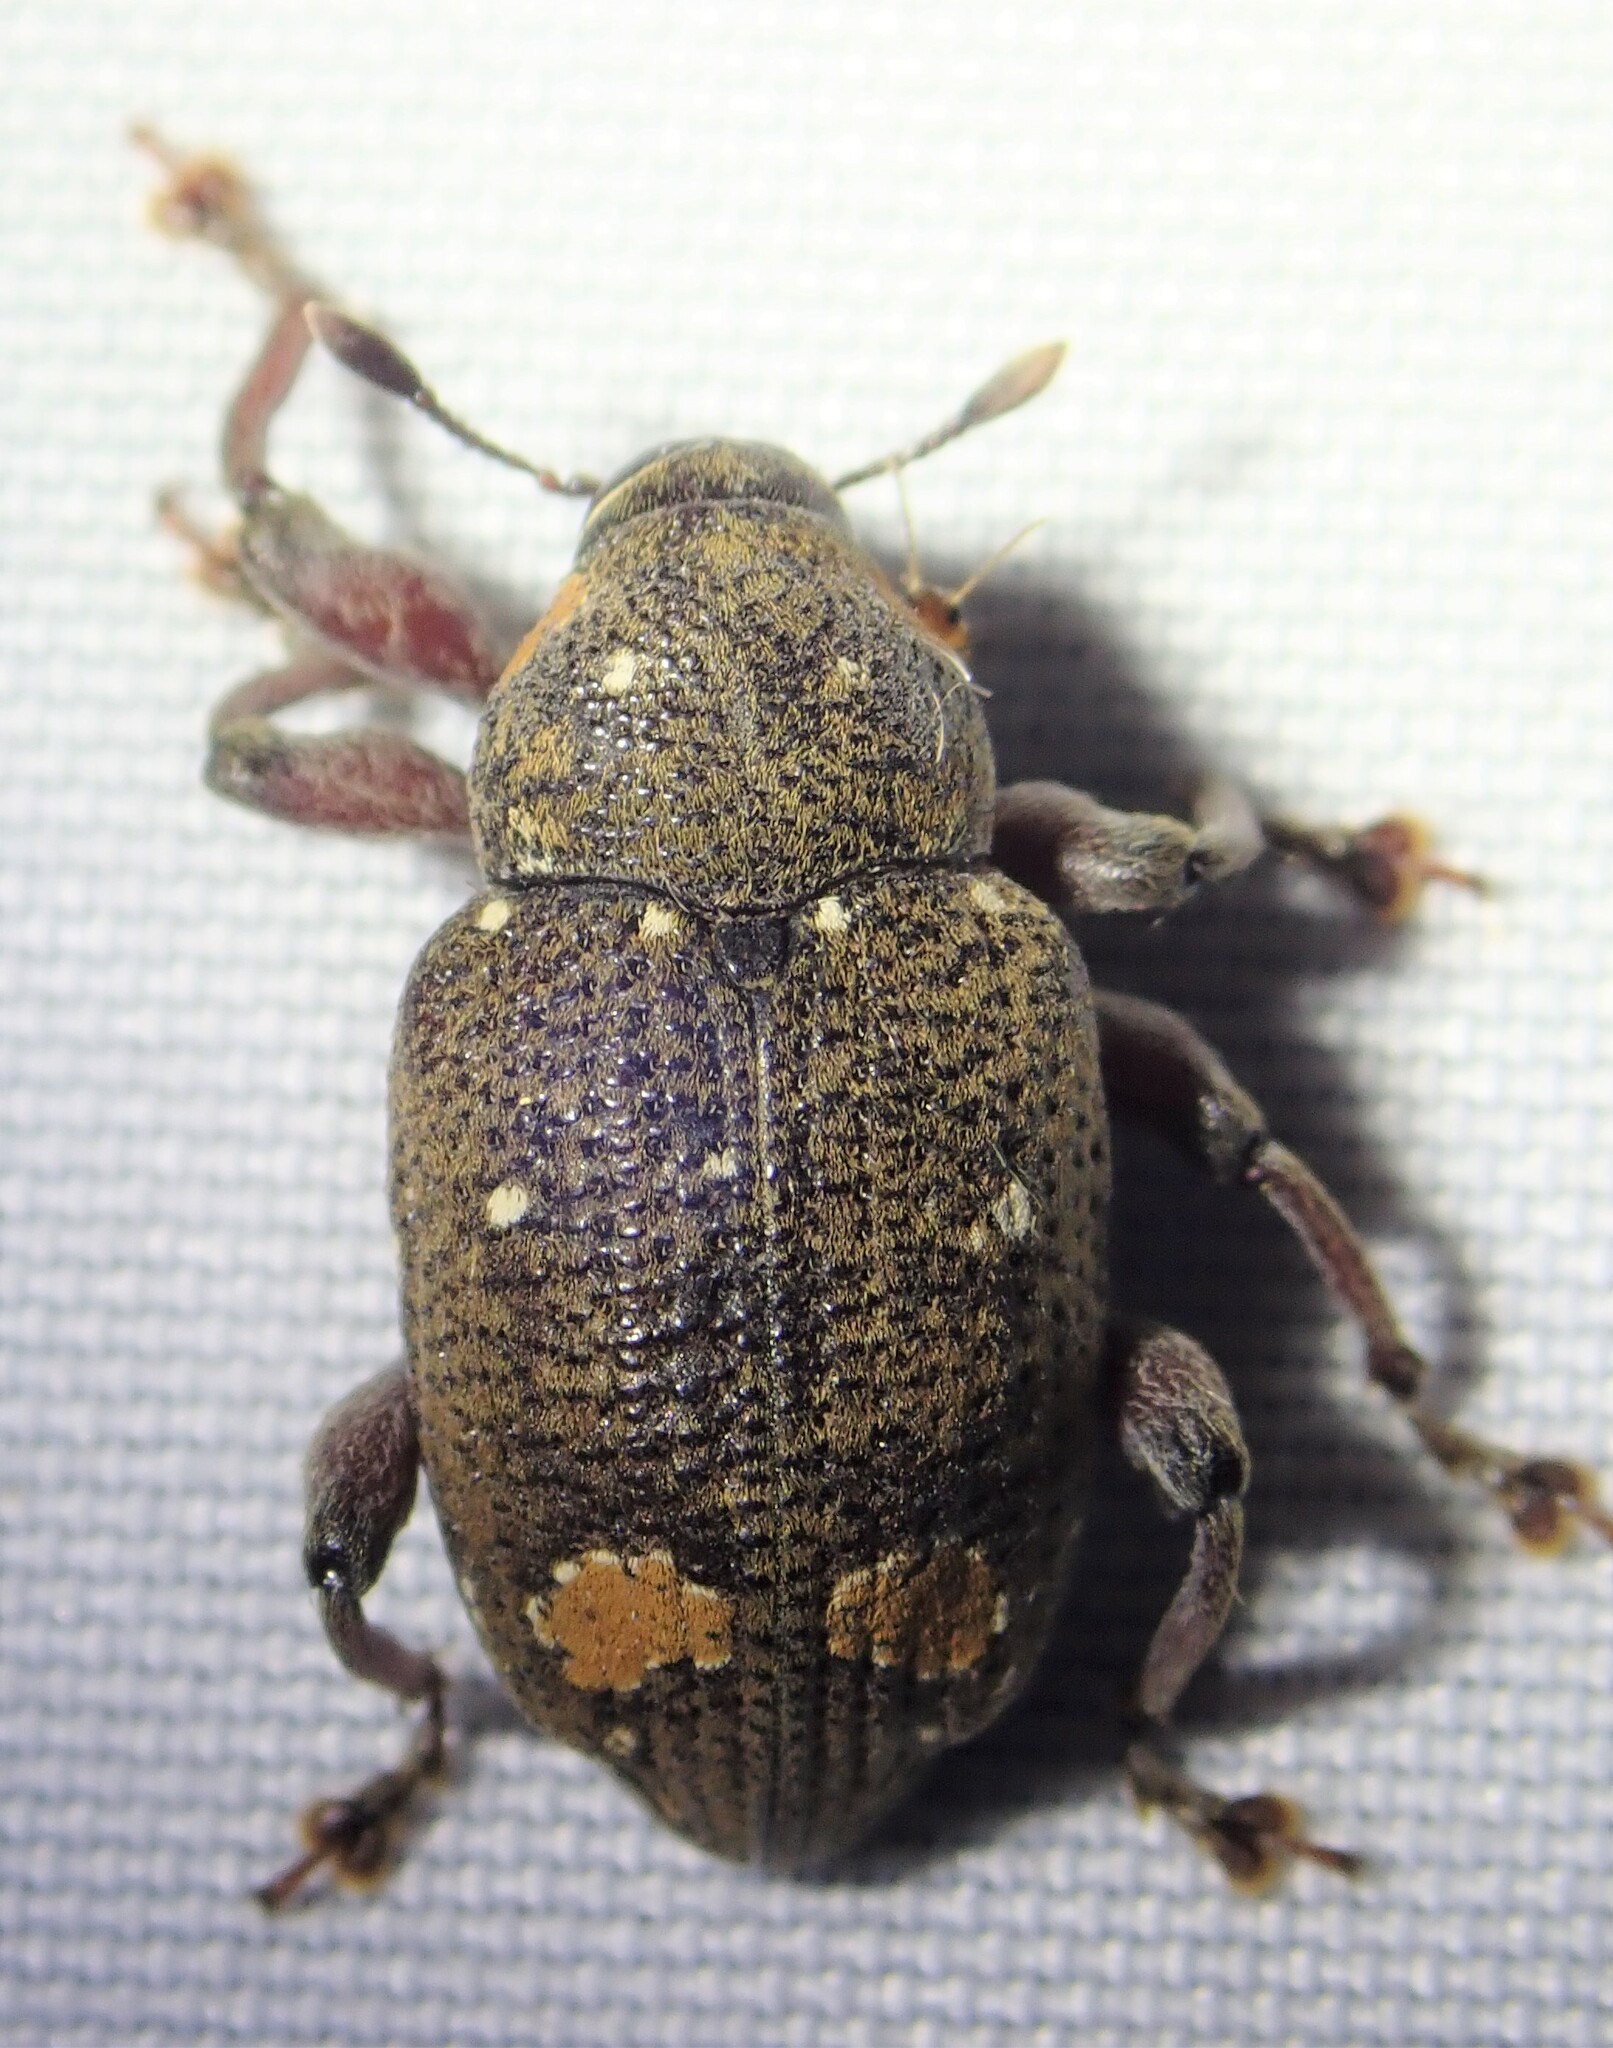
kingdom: Animalia
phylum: Arthropoda
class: Insecta
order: Coleoptera
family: Curculionidae
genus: Marshallius
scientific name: Marshallius
